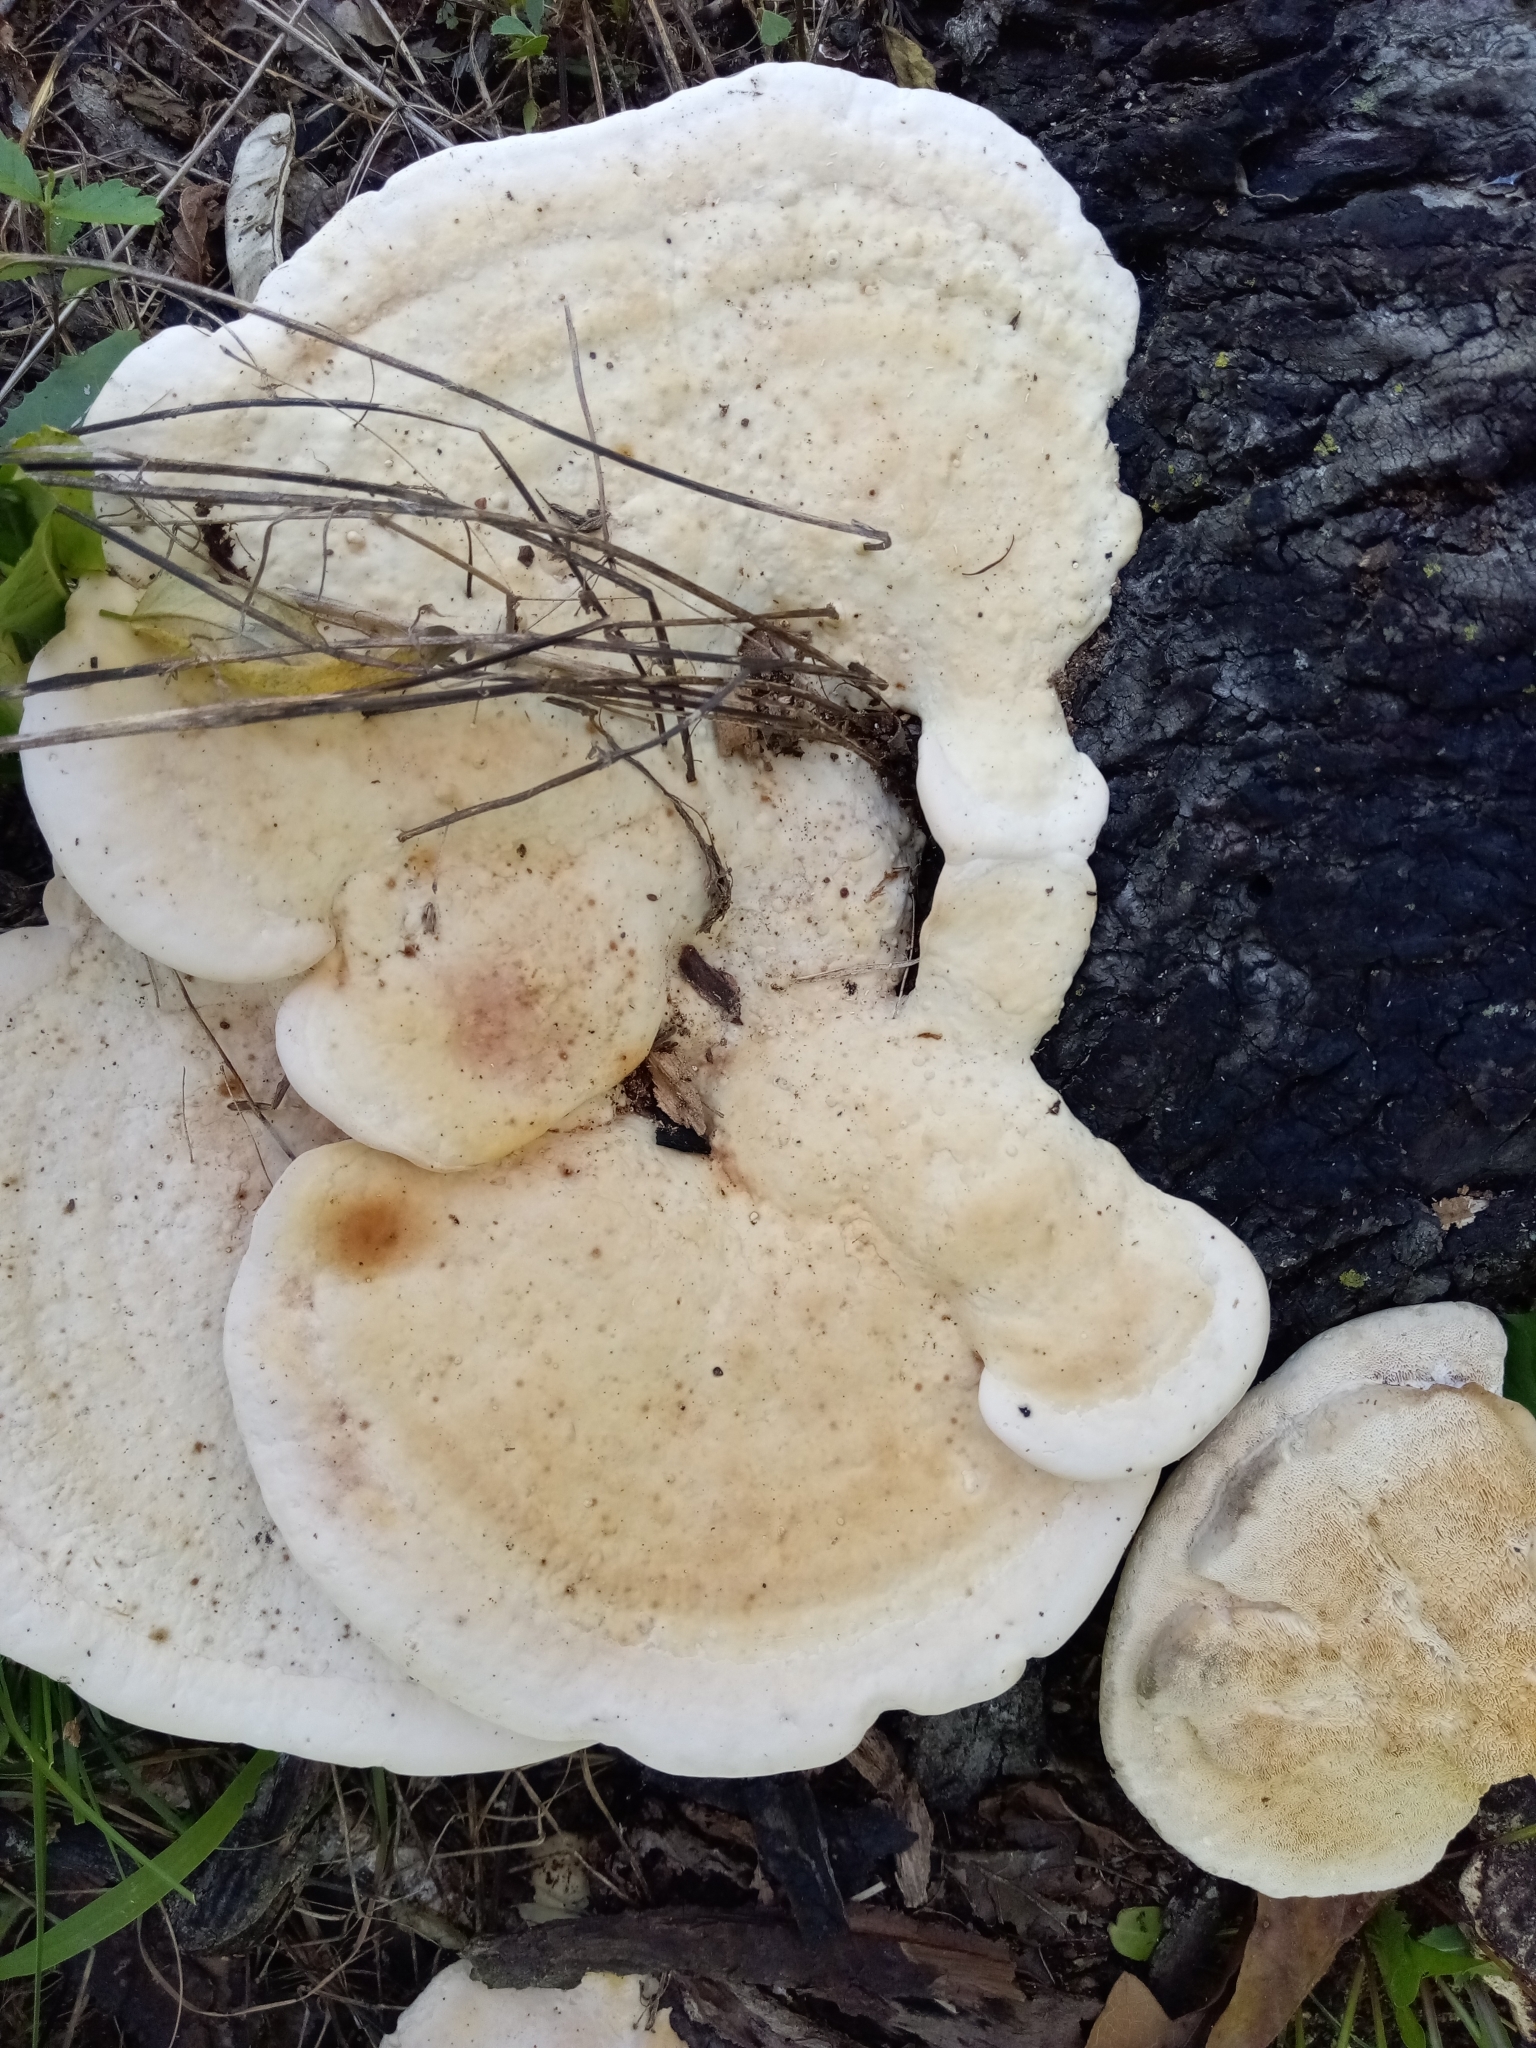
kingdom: Fungi
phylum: Basidiomycota
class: Agaricomycetes
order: Polyporales
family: Polyporaceae
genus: Trametes
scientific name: Trametes
